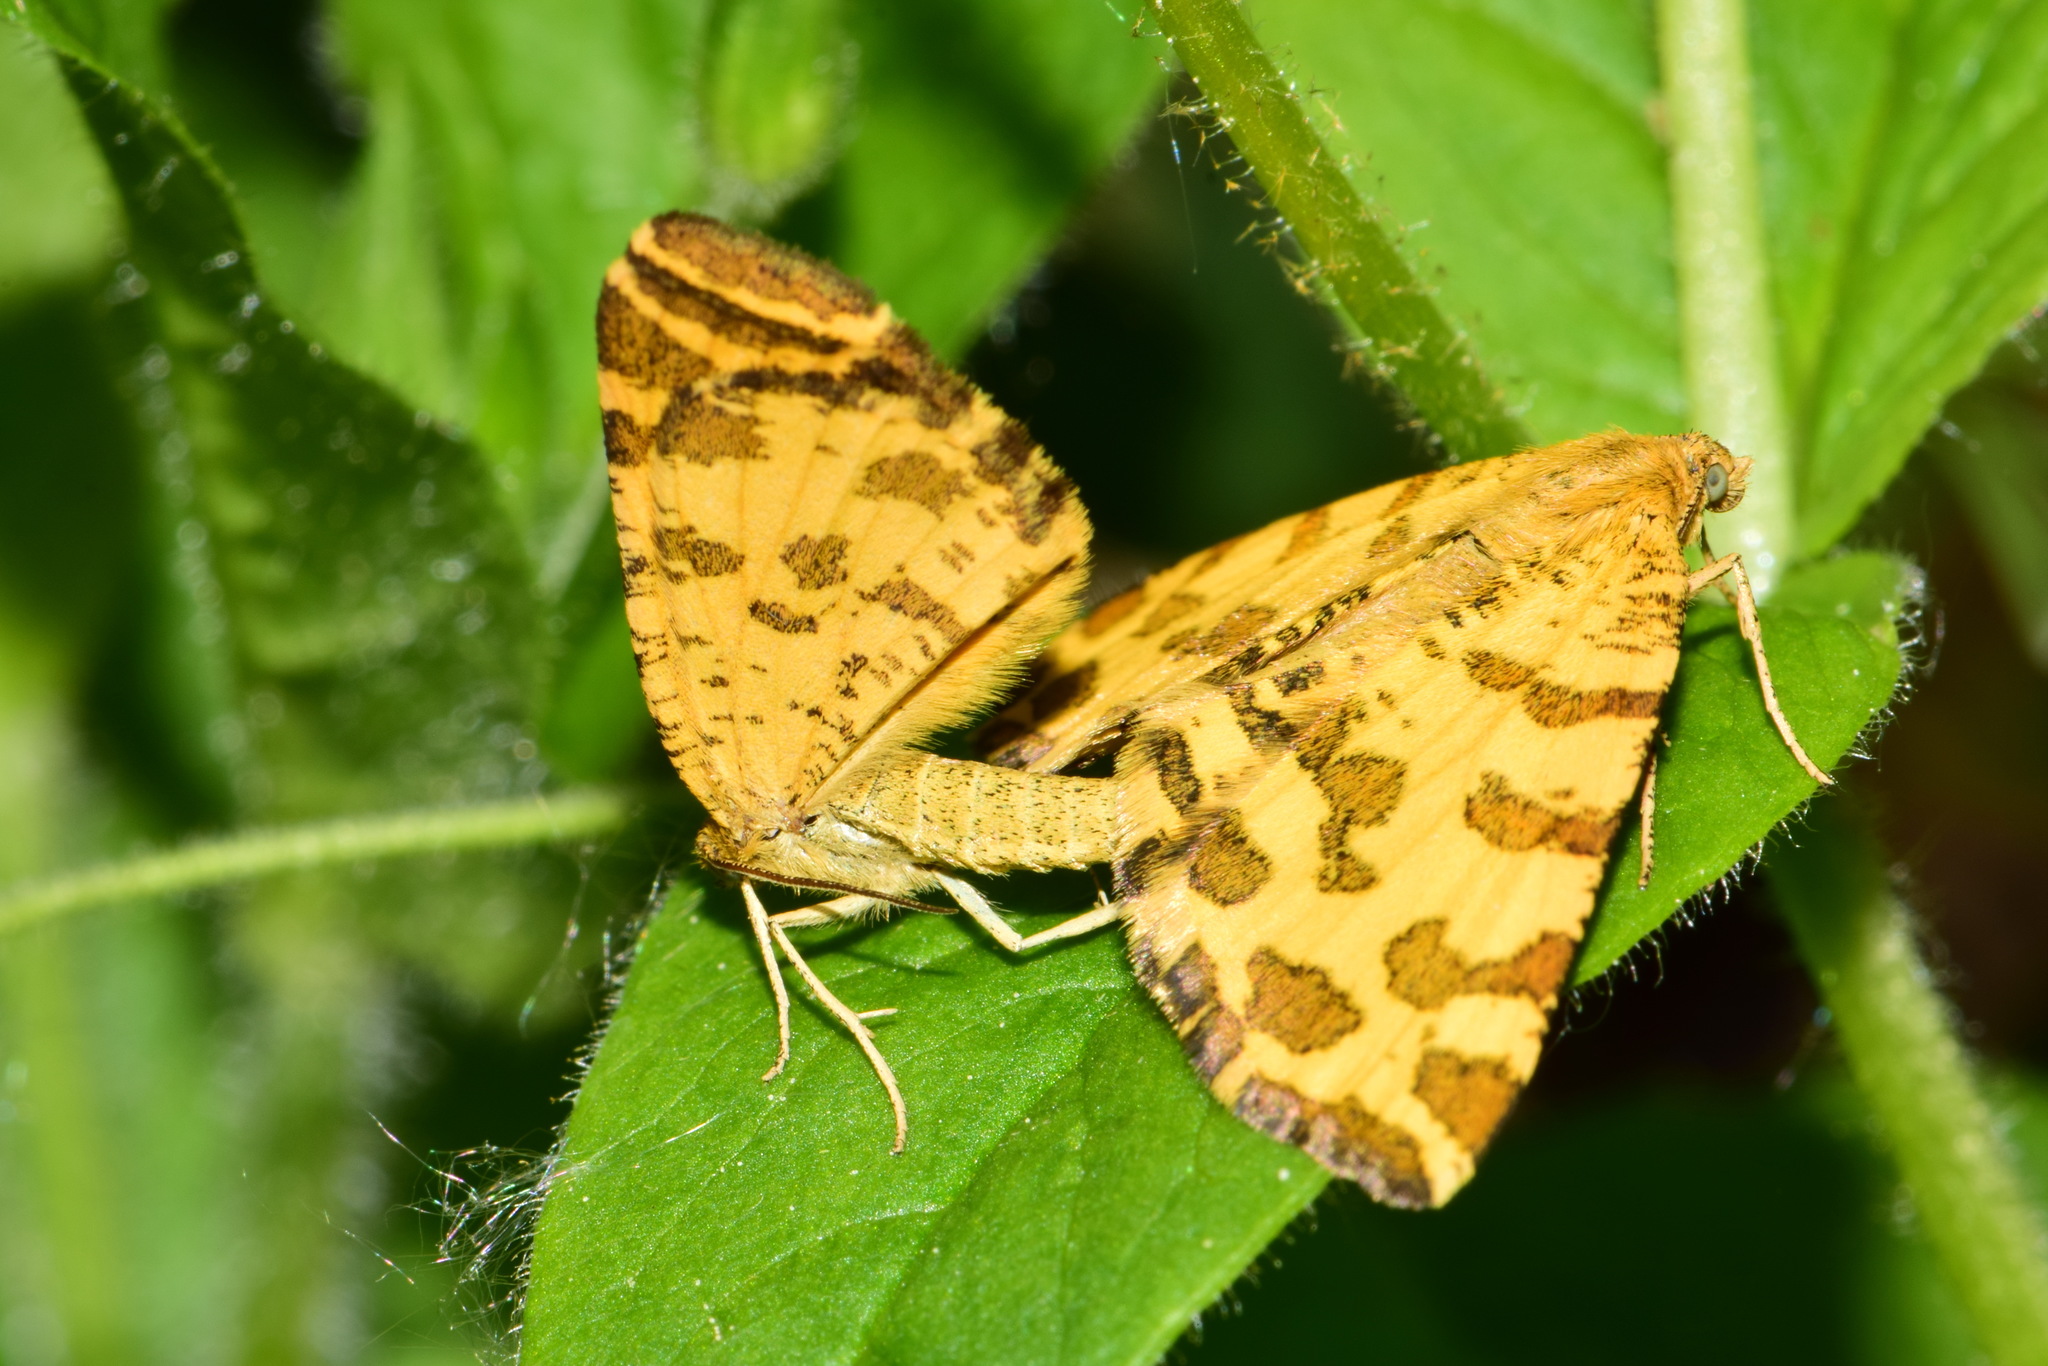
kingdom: Animalia
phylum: Arthropoda
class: Insecta
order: Lepidoptera
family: Geometridae
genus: Pseudopanthera
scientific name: Pseudopanthera macularia
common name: Speckled yellow
